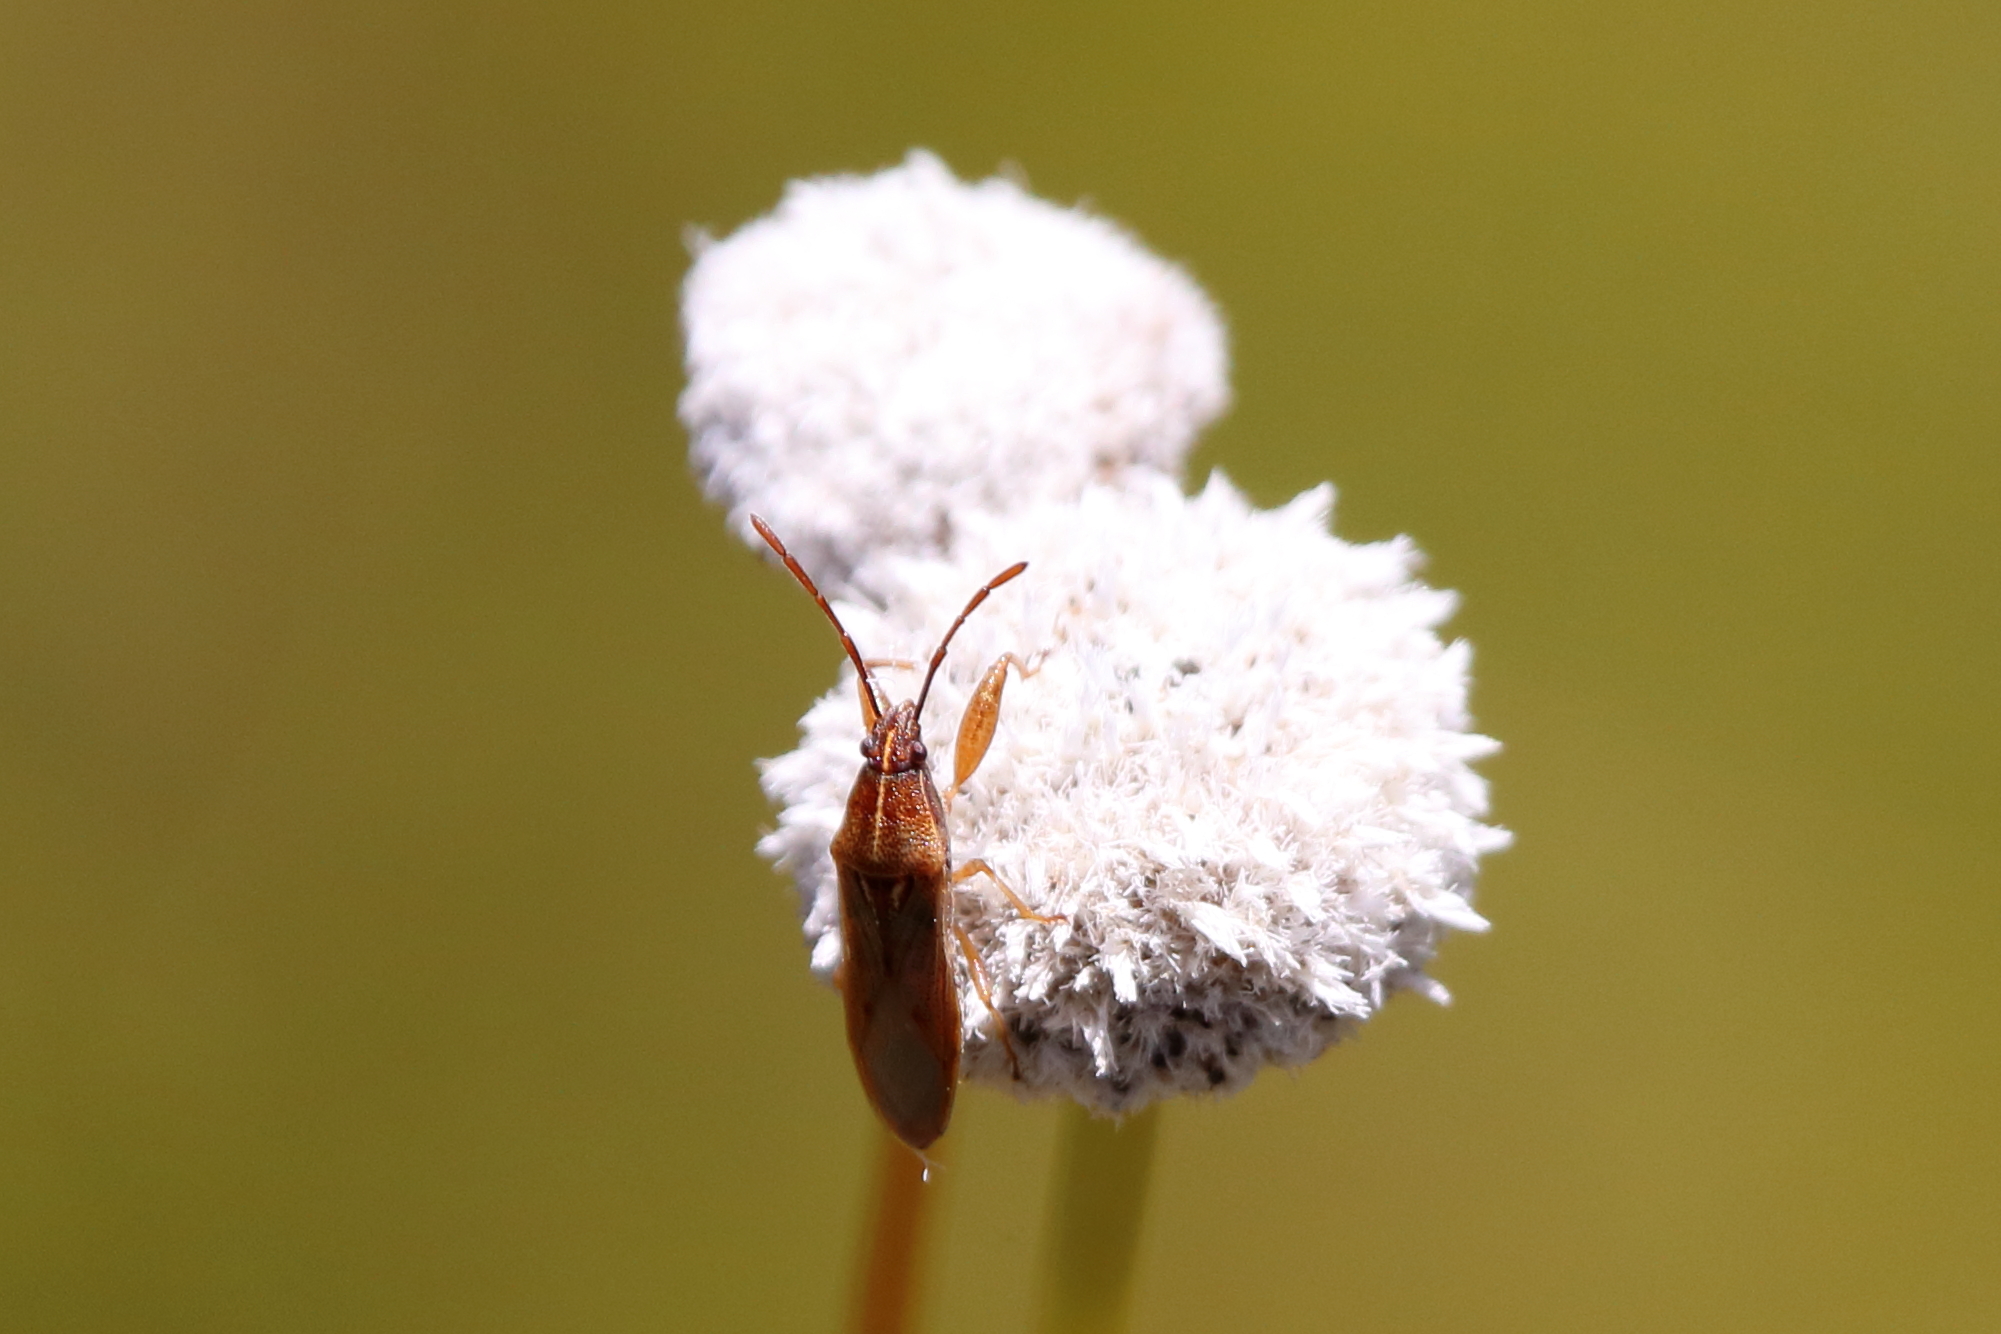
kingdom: Animalia
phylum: Arthropoda
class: Insecta
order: Hemiptera
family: Pachygronthidae
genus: Oedancala
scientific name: Oedancala crassimana
